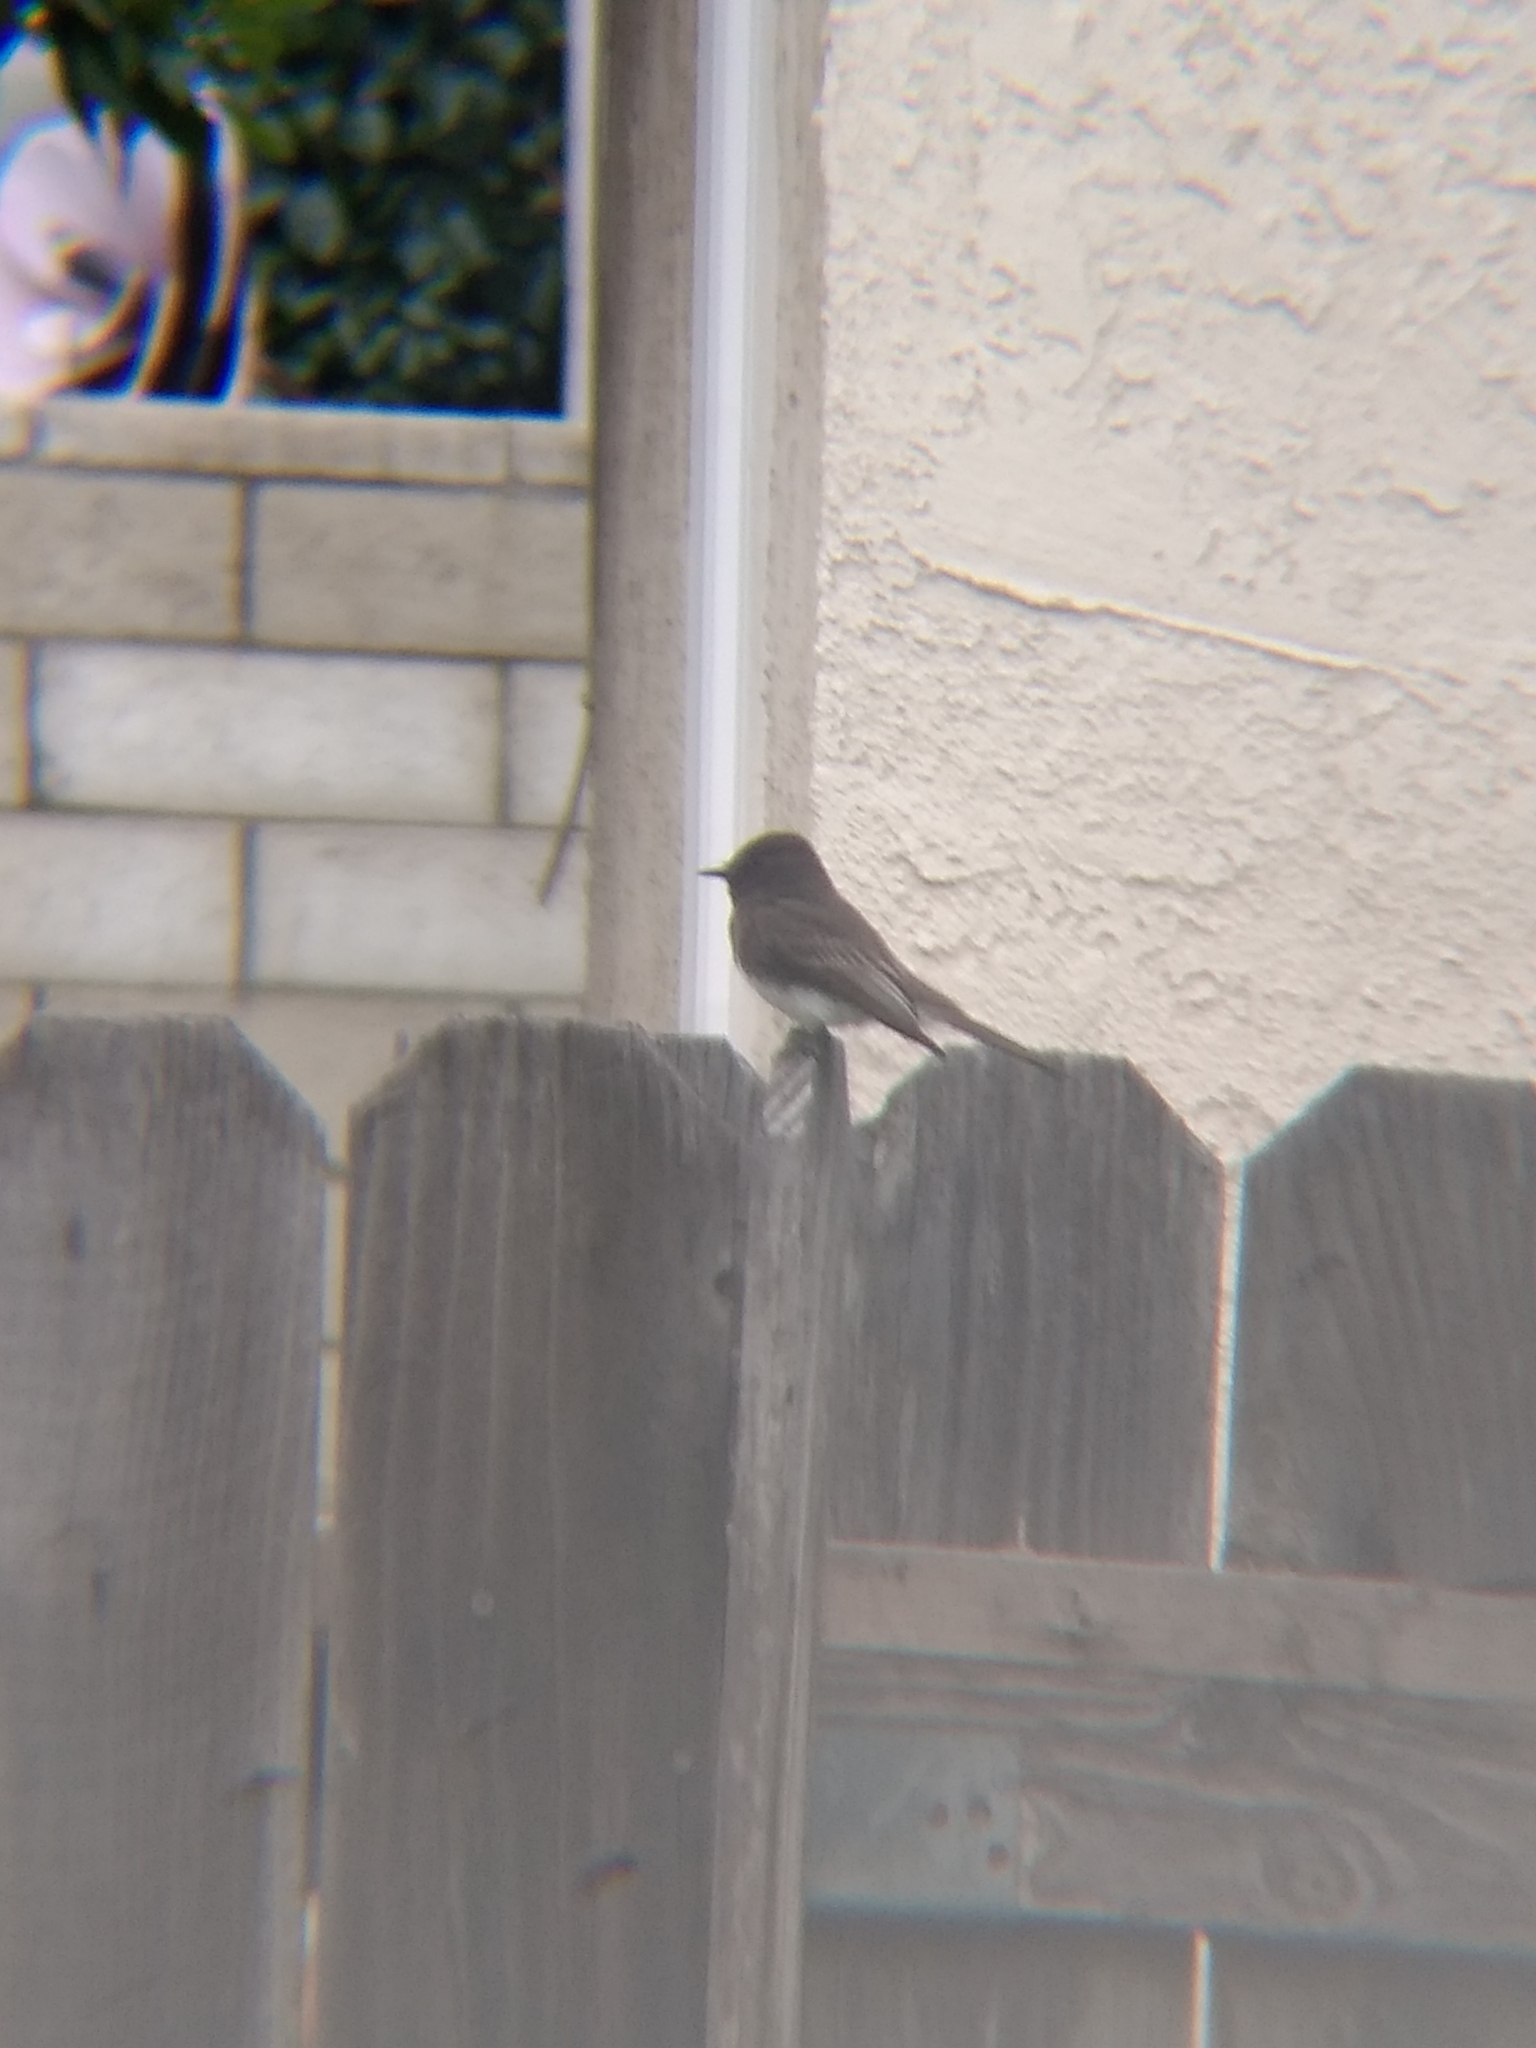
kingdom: Animalia
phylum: Chordata
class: Aves
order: Passeriformes
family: Tyrannidae
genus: Sayornis
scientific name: Sayornis nigricans
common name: Black phoebe
